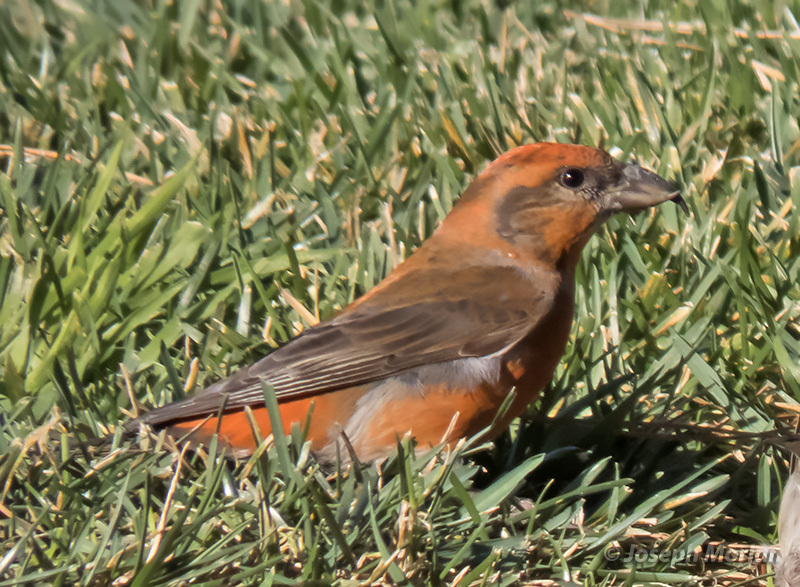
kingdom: Animalia
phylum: Chordata
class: Aves
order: Passeriformes
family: Fringillidae
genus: Loxia
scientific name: Loxia curvirostra
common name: Red crossbill
